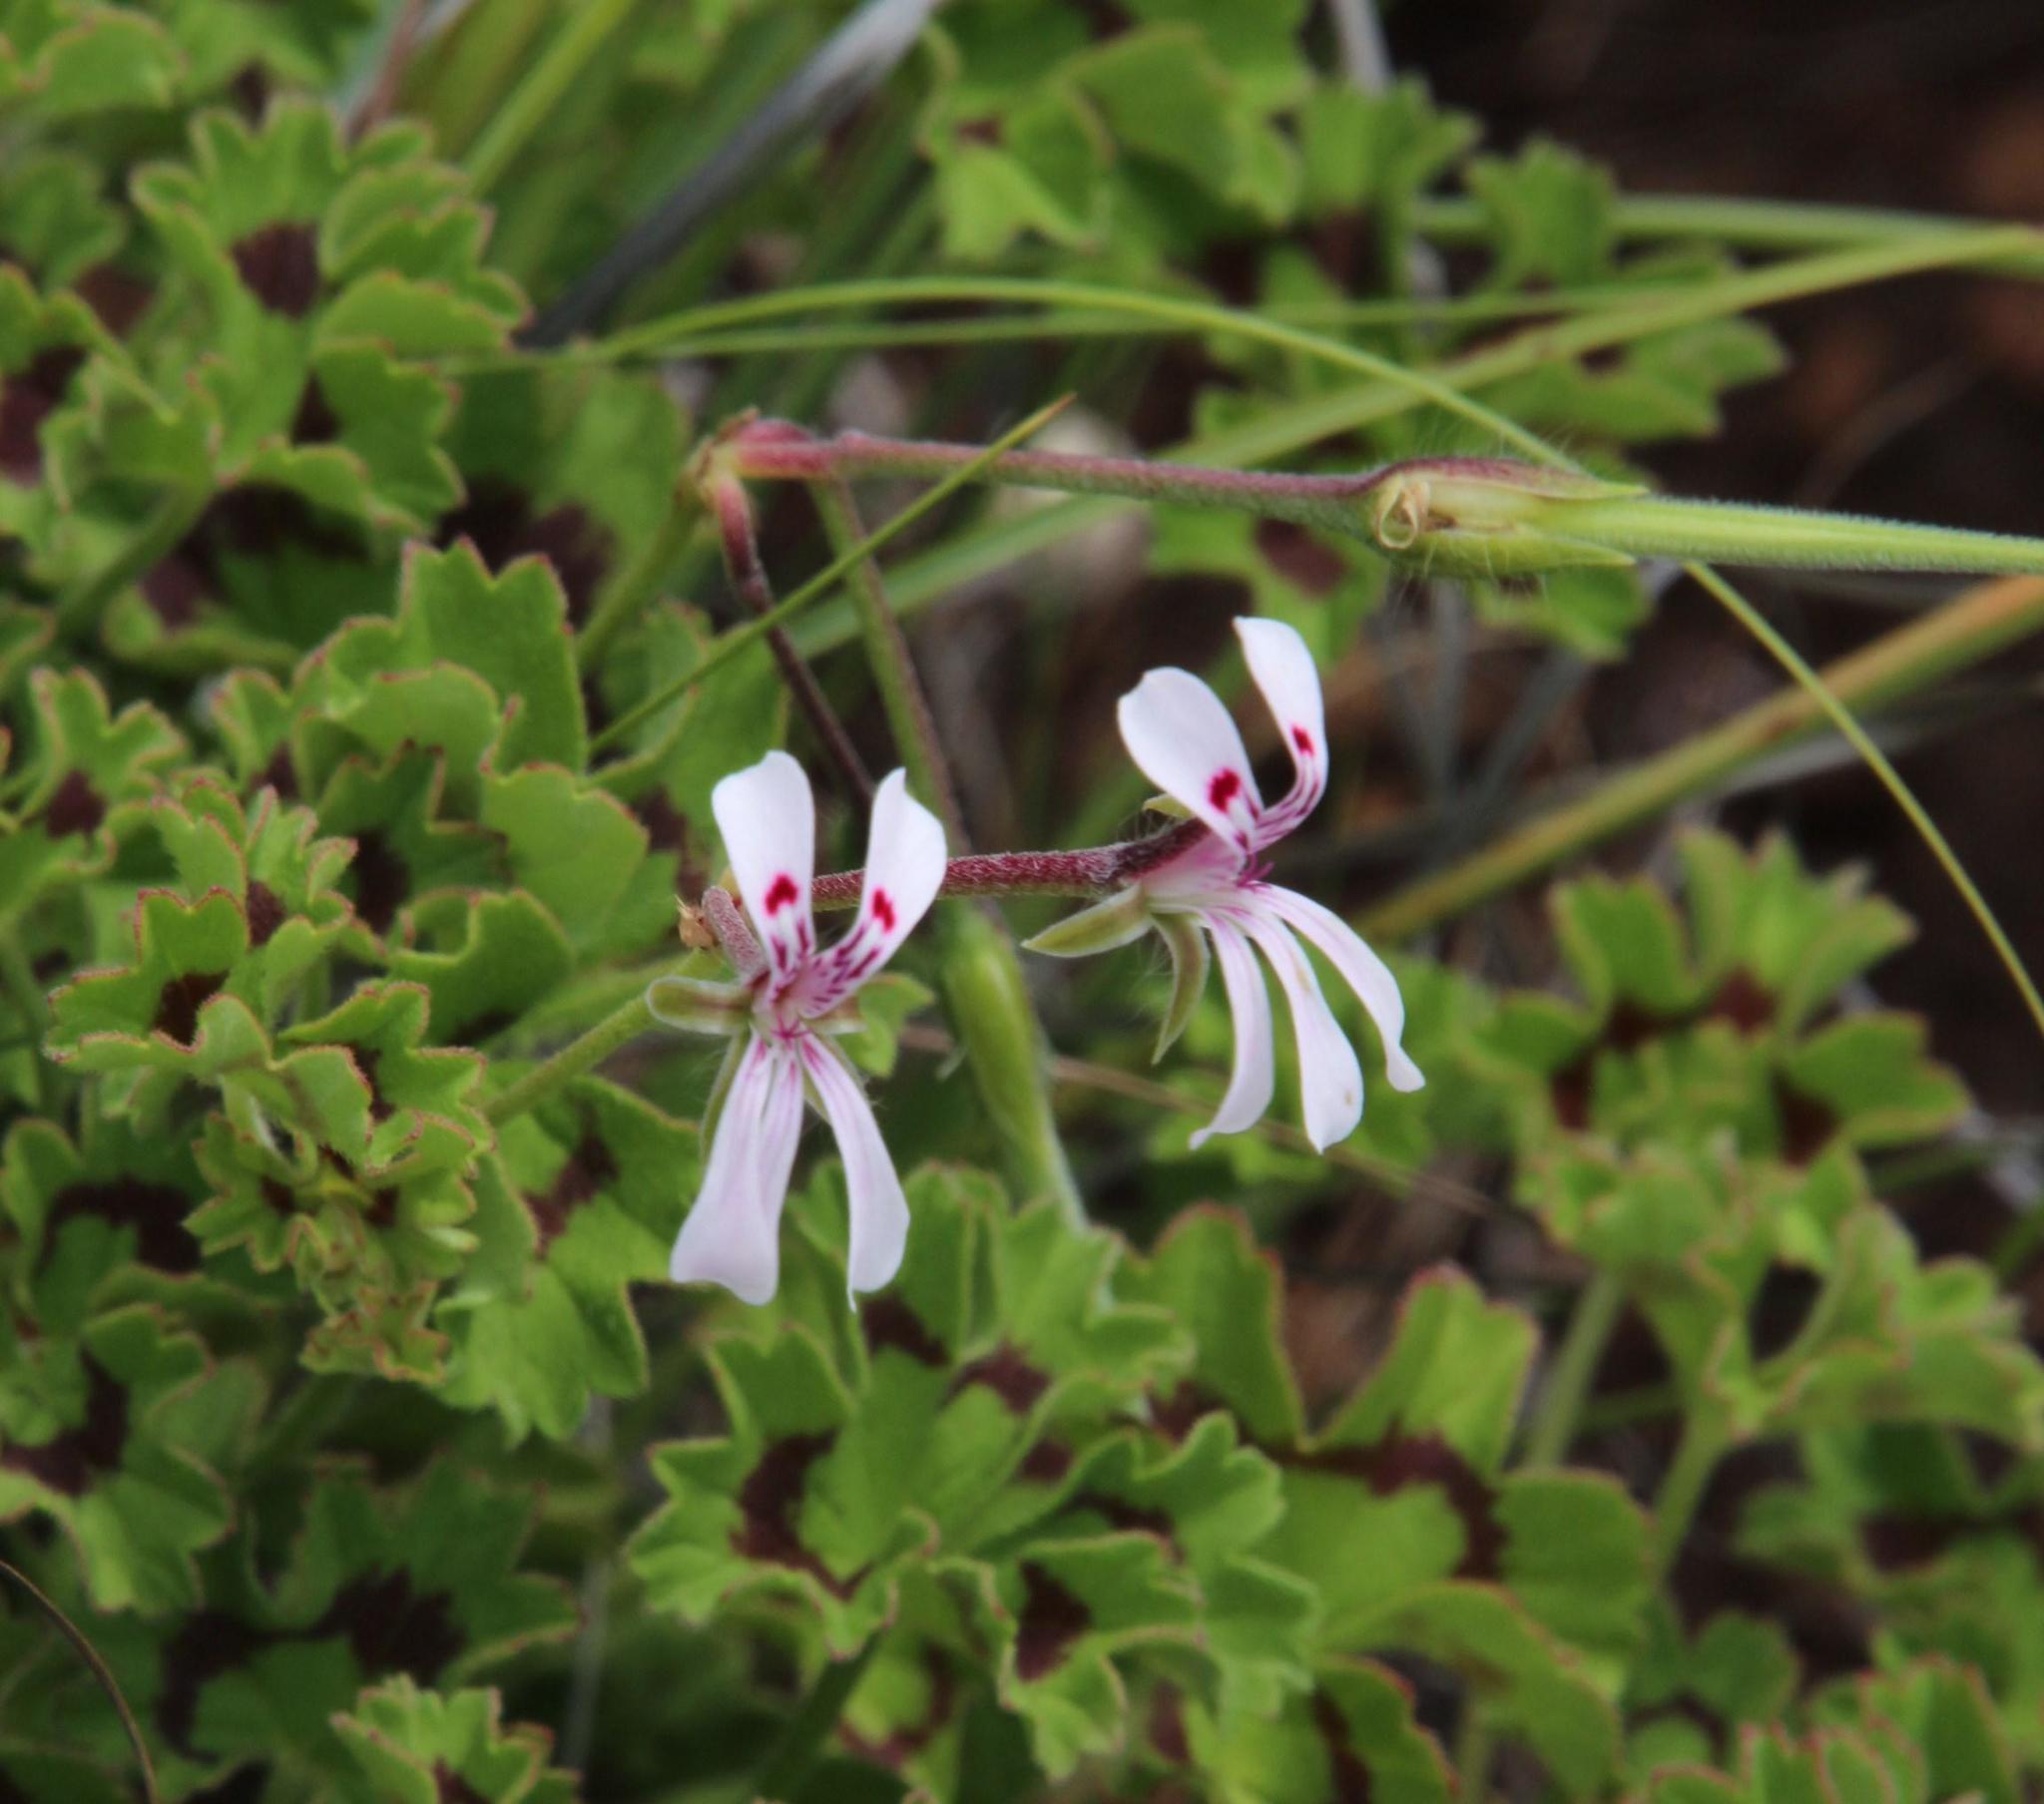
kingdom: Plantae
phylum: Tracheophyta
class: Magnoliopsida
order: Geraniales
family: Geraniaceae
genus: Pelargonium
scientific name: Pelargonium ranunculophyllum
